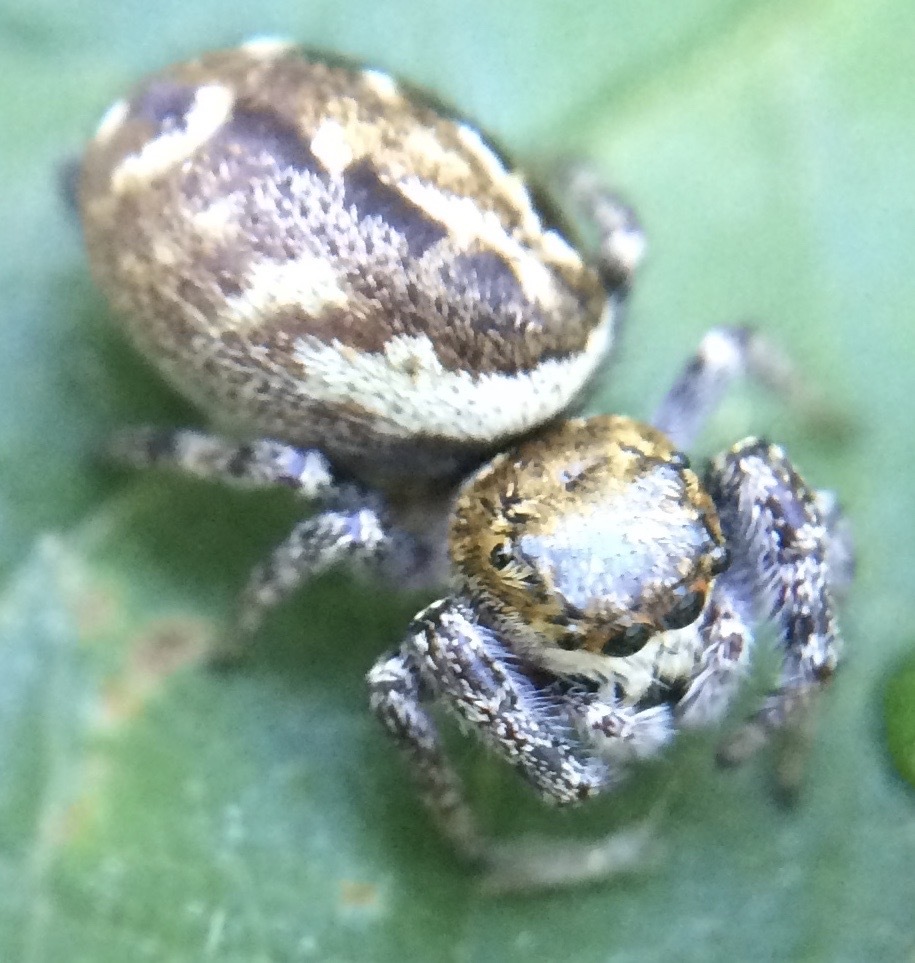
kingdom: Animalia
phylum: Arthropoda
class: Arachnida
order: Araneae
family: Salticidae
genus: Metaphidippus
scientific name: Metaphidippus manni
